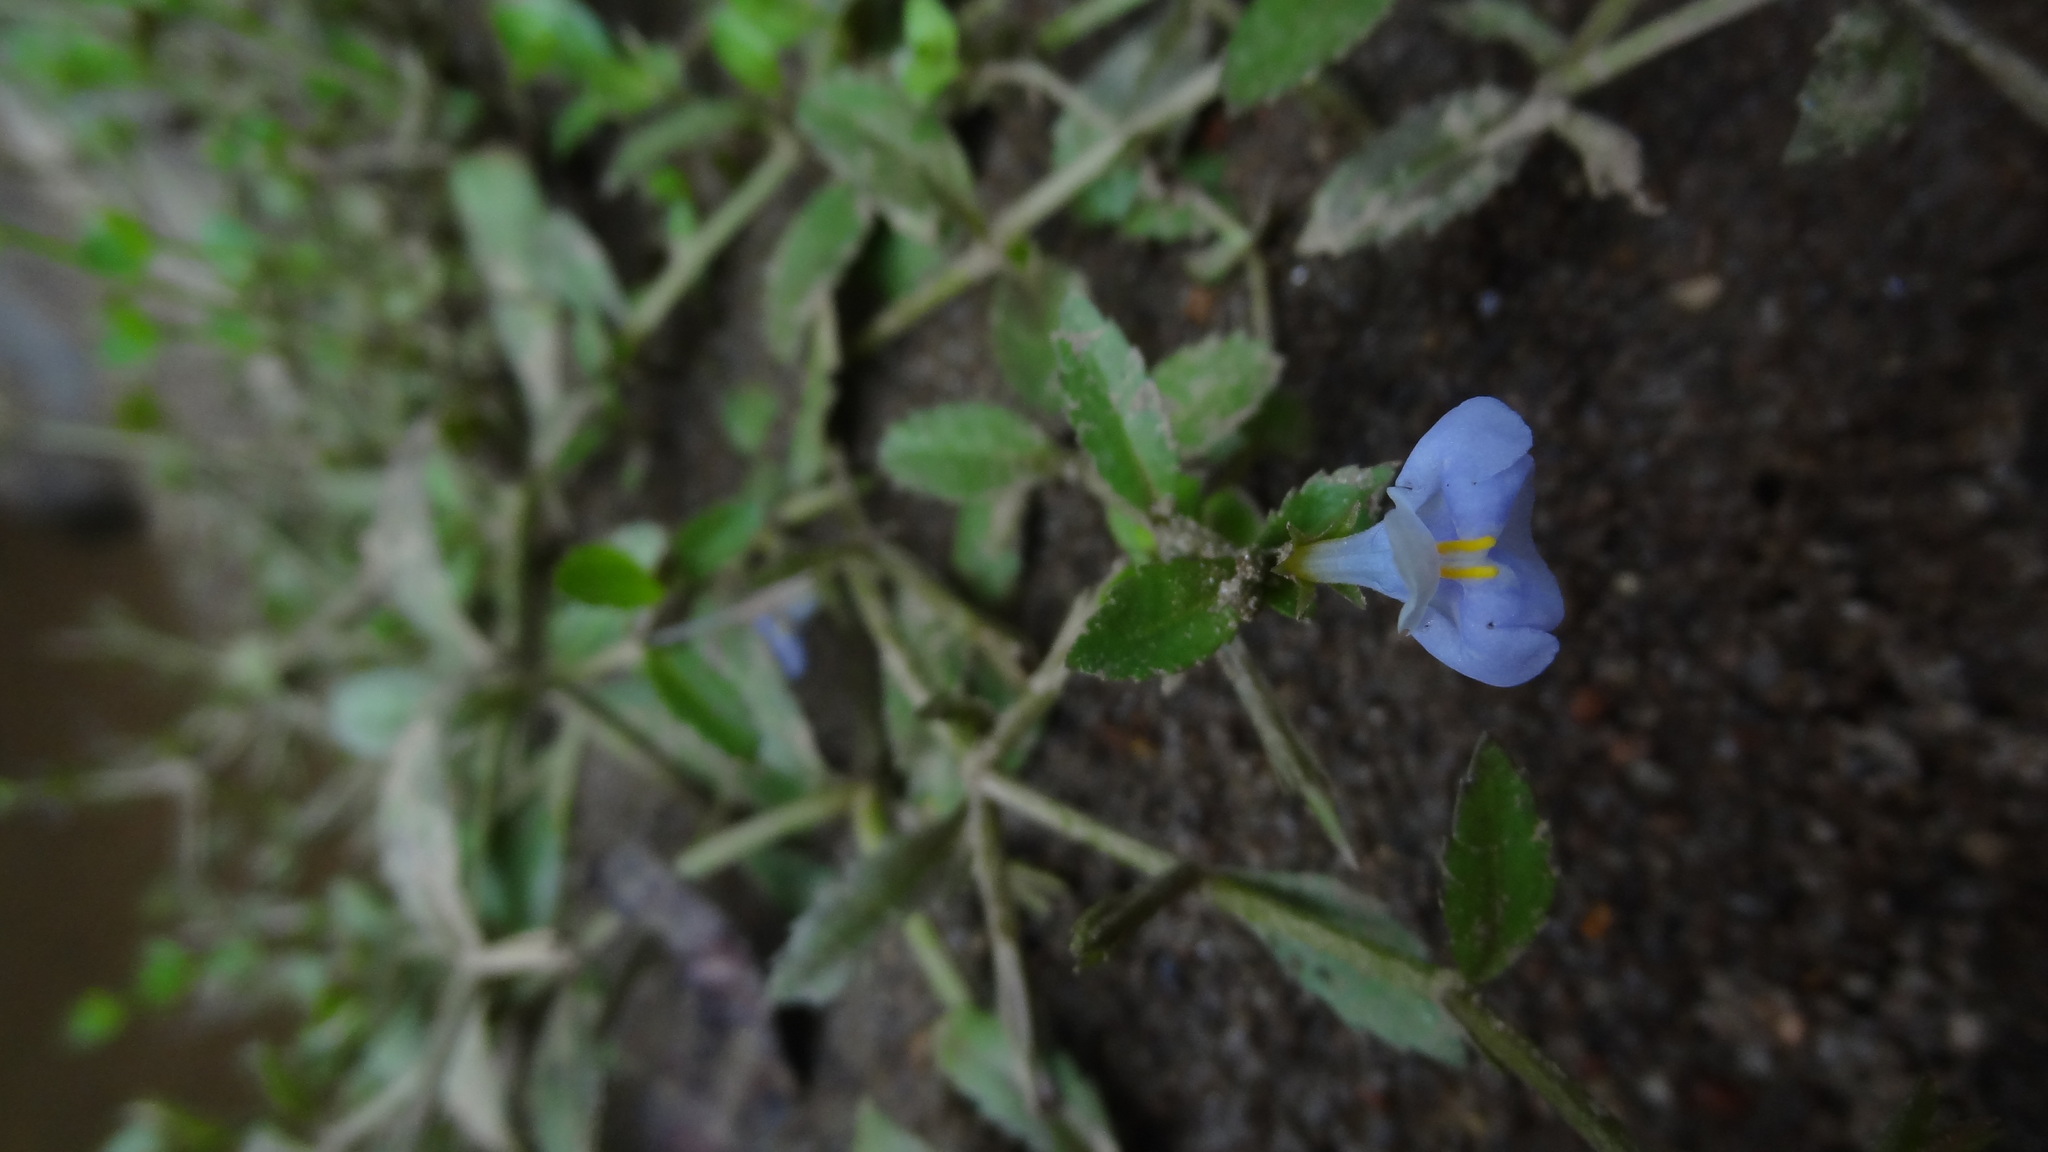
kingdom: Plantae
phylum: Tracheophyta
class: Magnoliopsida
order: Lamiales
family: Linderniaceae
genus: Bonnaya
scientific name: Bonnaya antipoda
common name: Sparrow false pimpernel
